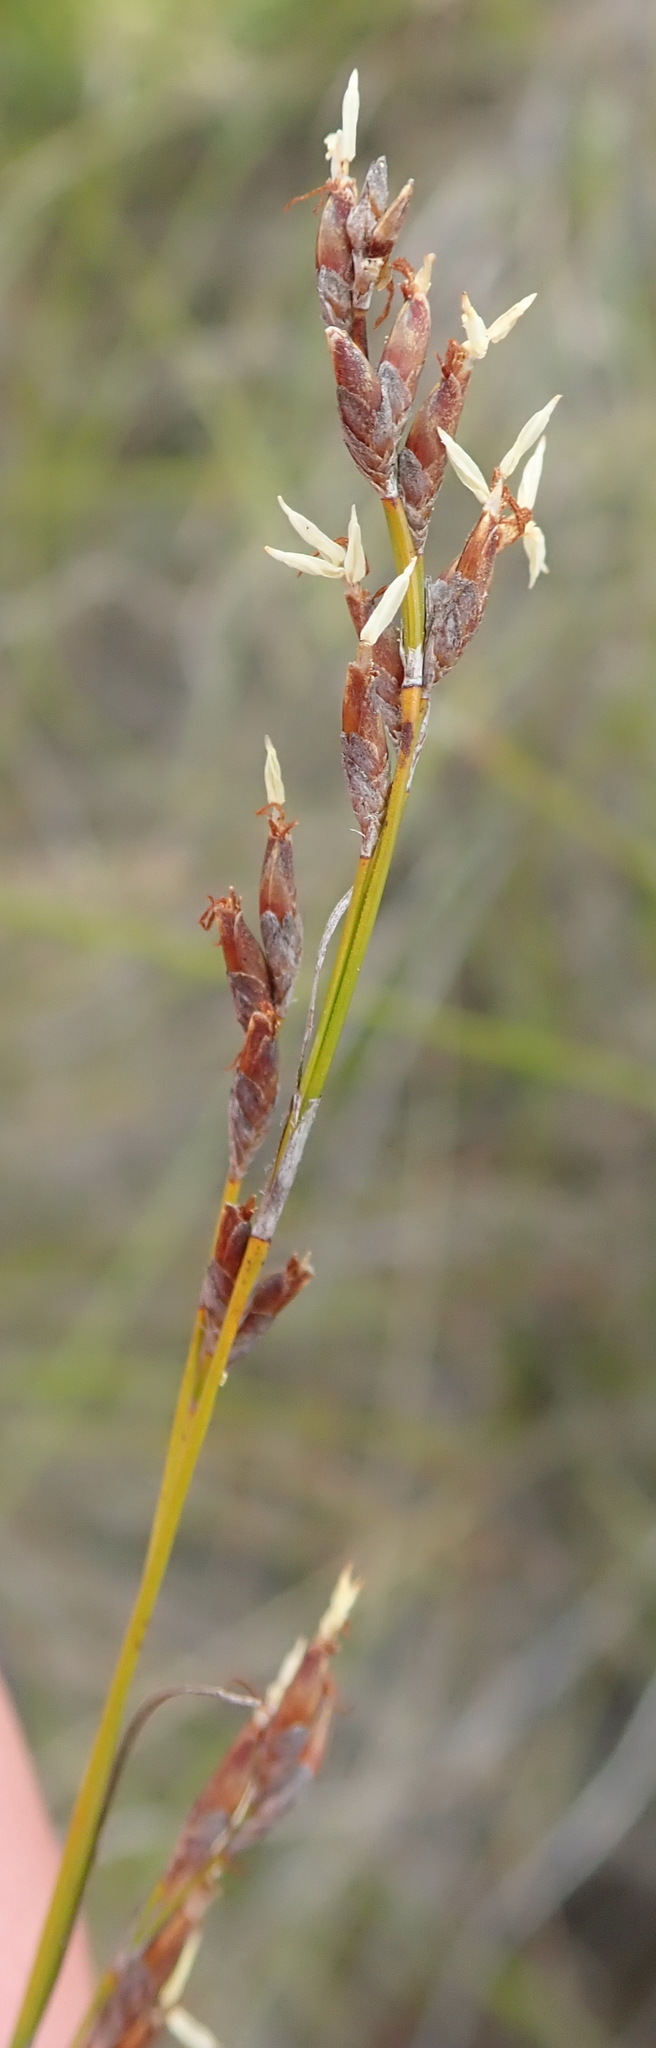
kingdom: Plantae
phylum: Tracheophyta
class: Liliopsida
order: Poales
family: Cyperaceae
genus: Tetraria
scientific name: Tetraria microstachys
